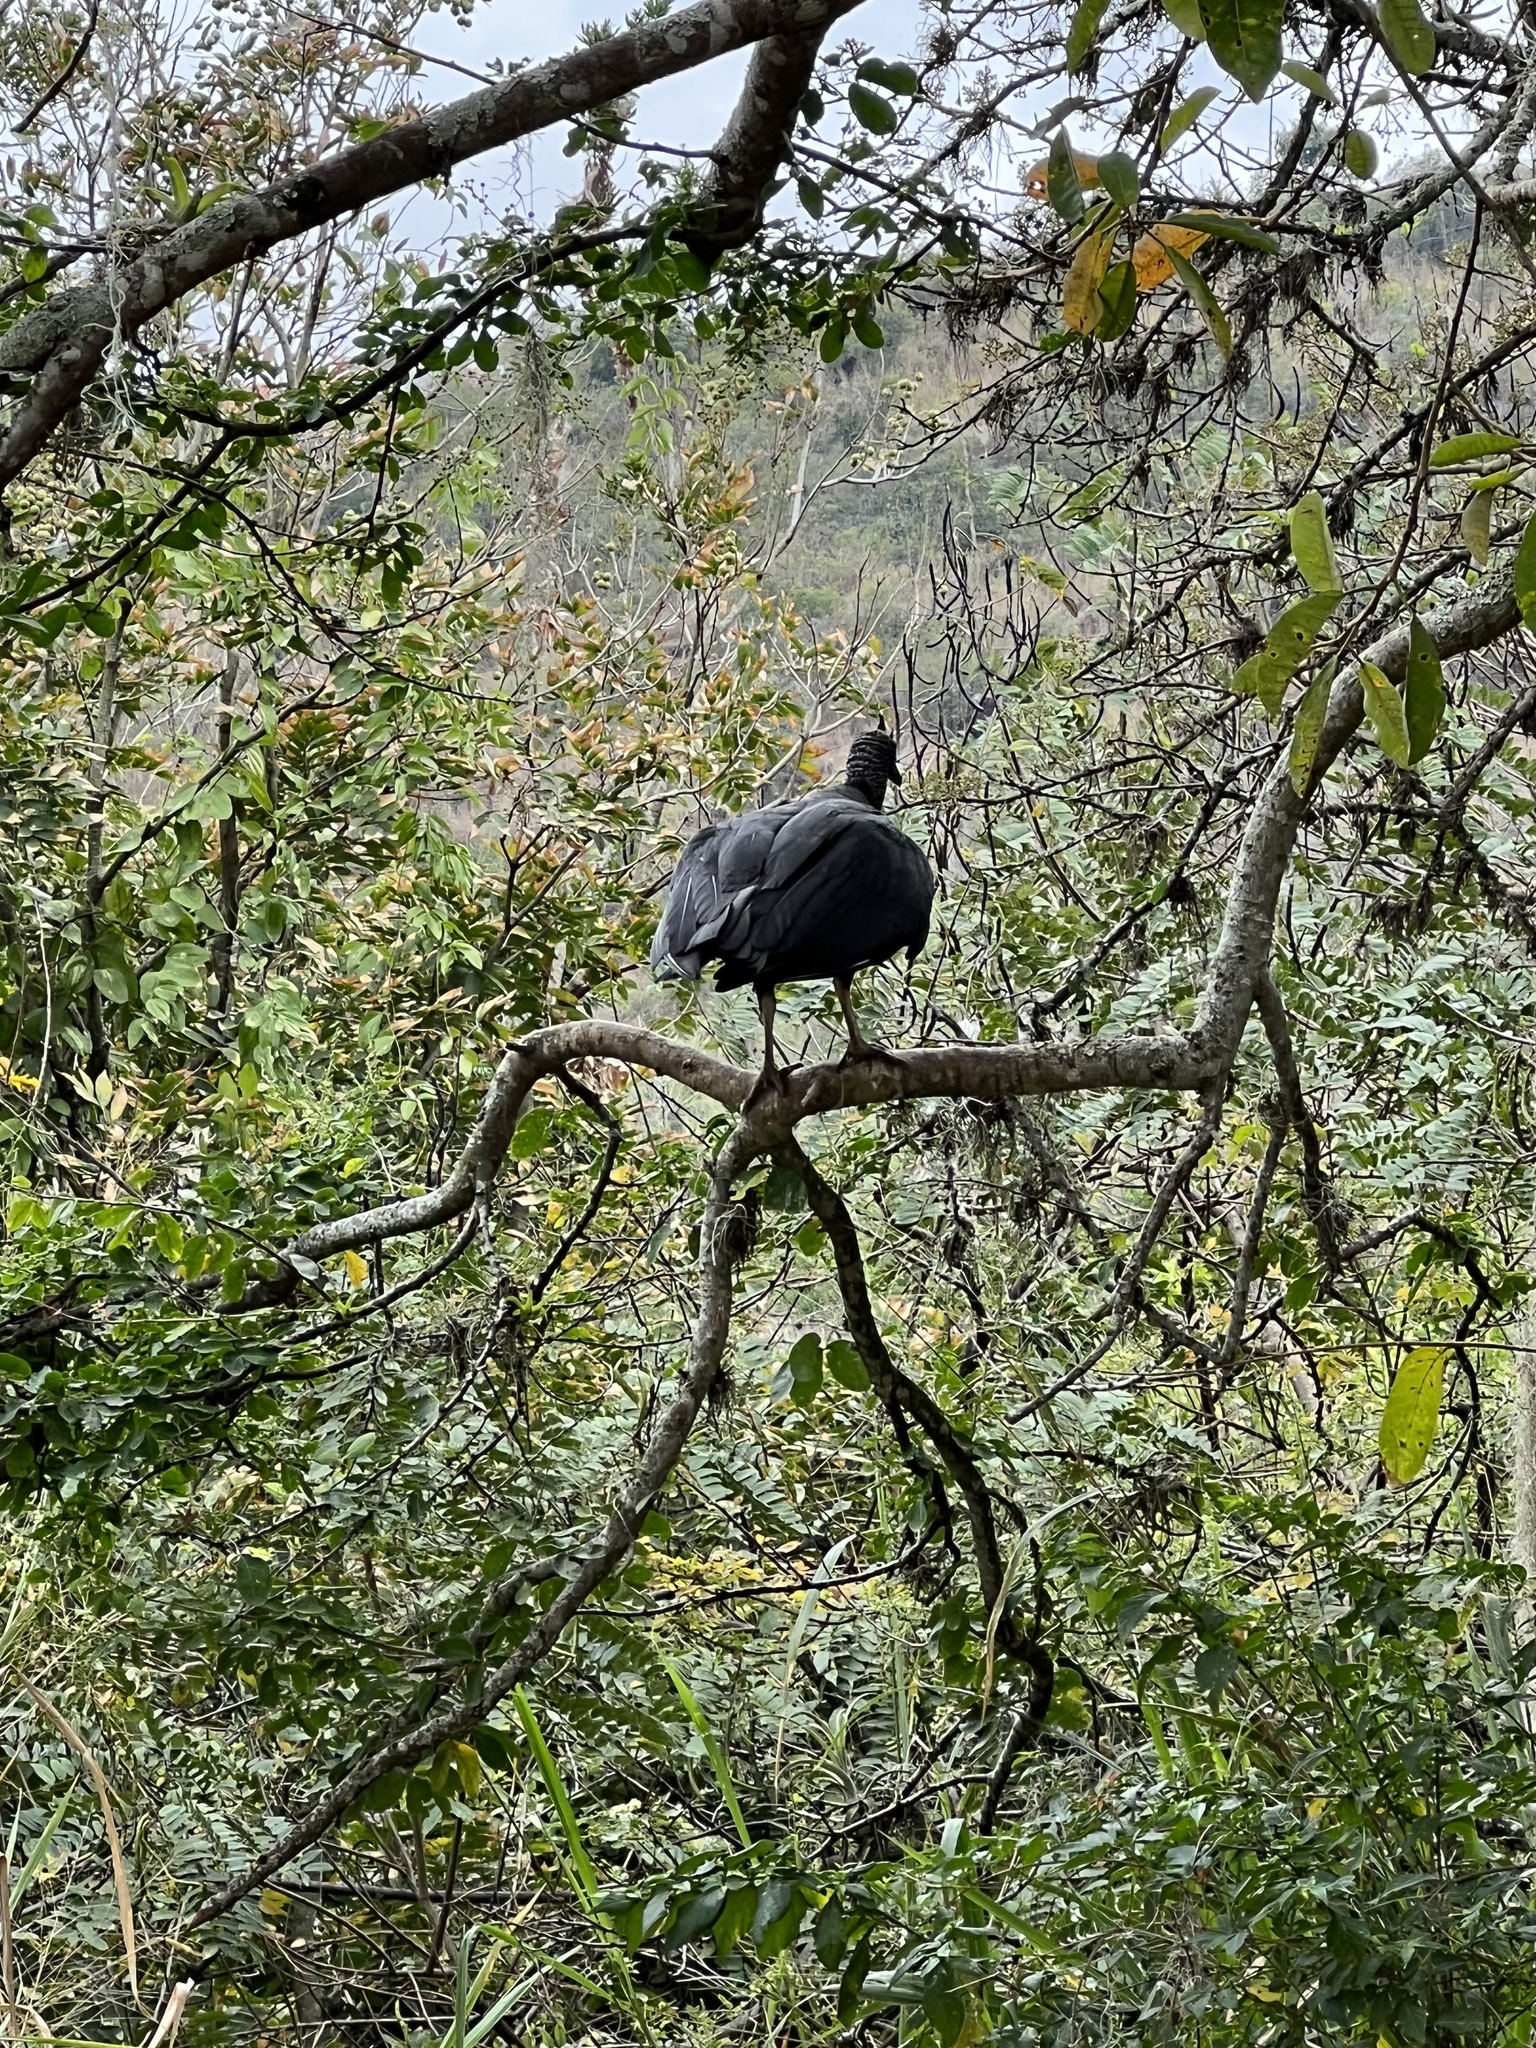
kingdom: Animalia
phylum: Chordata
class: Aves
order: Accipitriformes
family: Cathartidae
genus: Coragyps
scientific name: Coragyps atratus
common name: Black vulture
